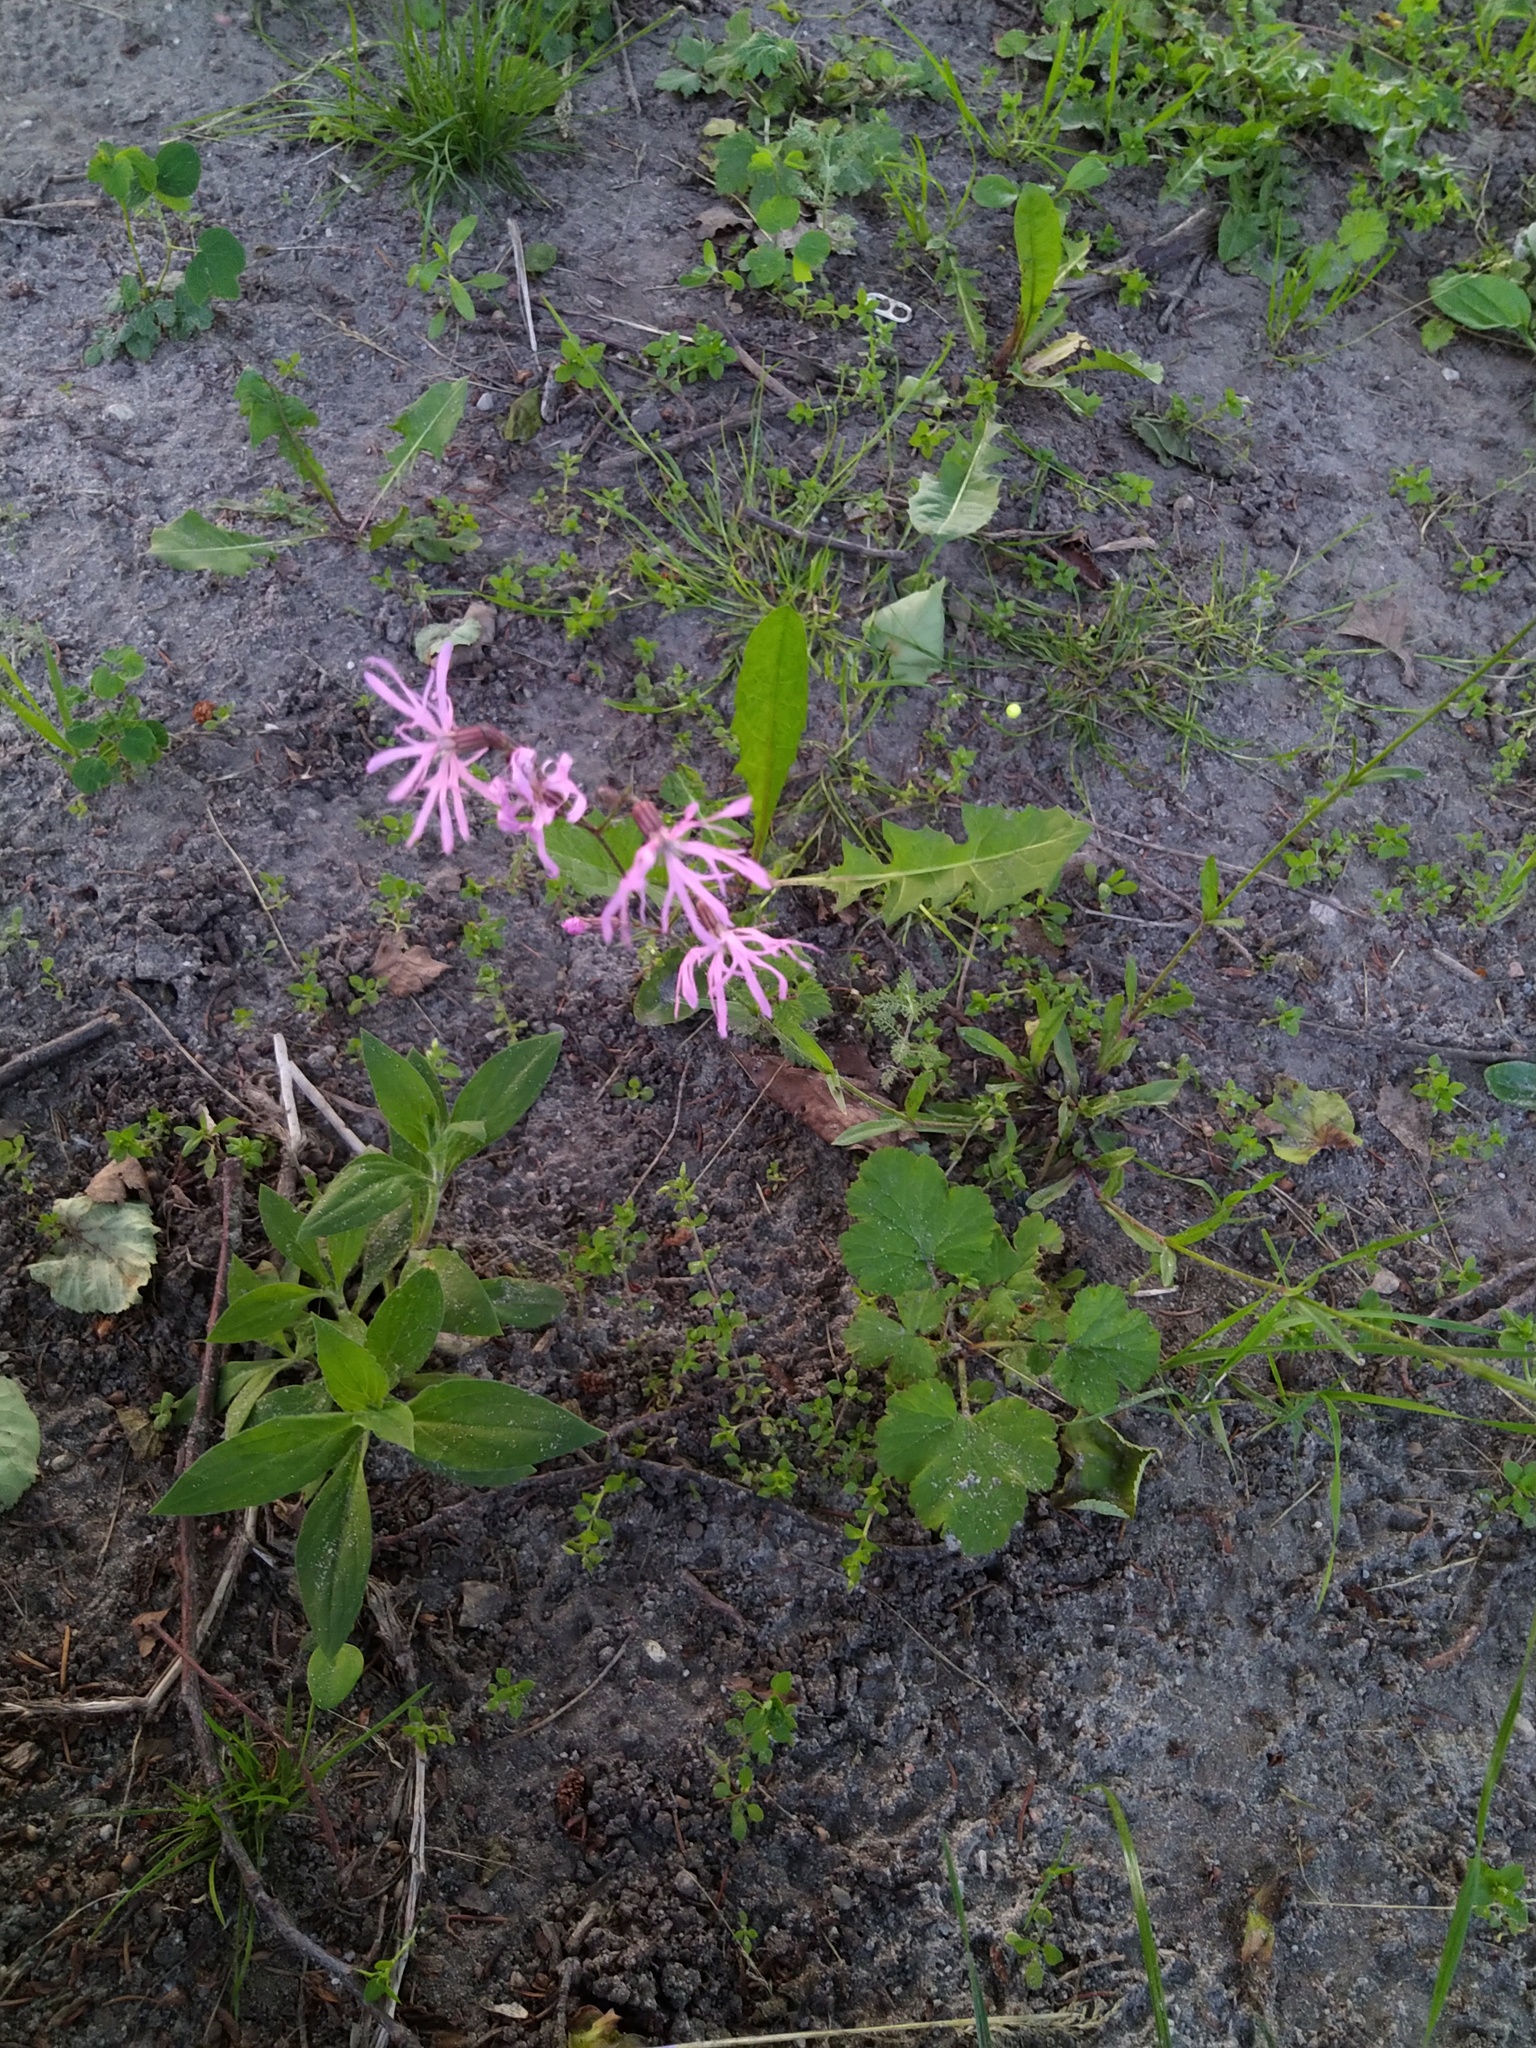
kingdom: Plantae
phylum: Tracheophyta
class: Magnoliopsida
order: Caryophyllales
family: Caryophyllaceae
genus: Silene
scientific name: Silene flos-cuculi
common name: Ragged-robin
